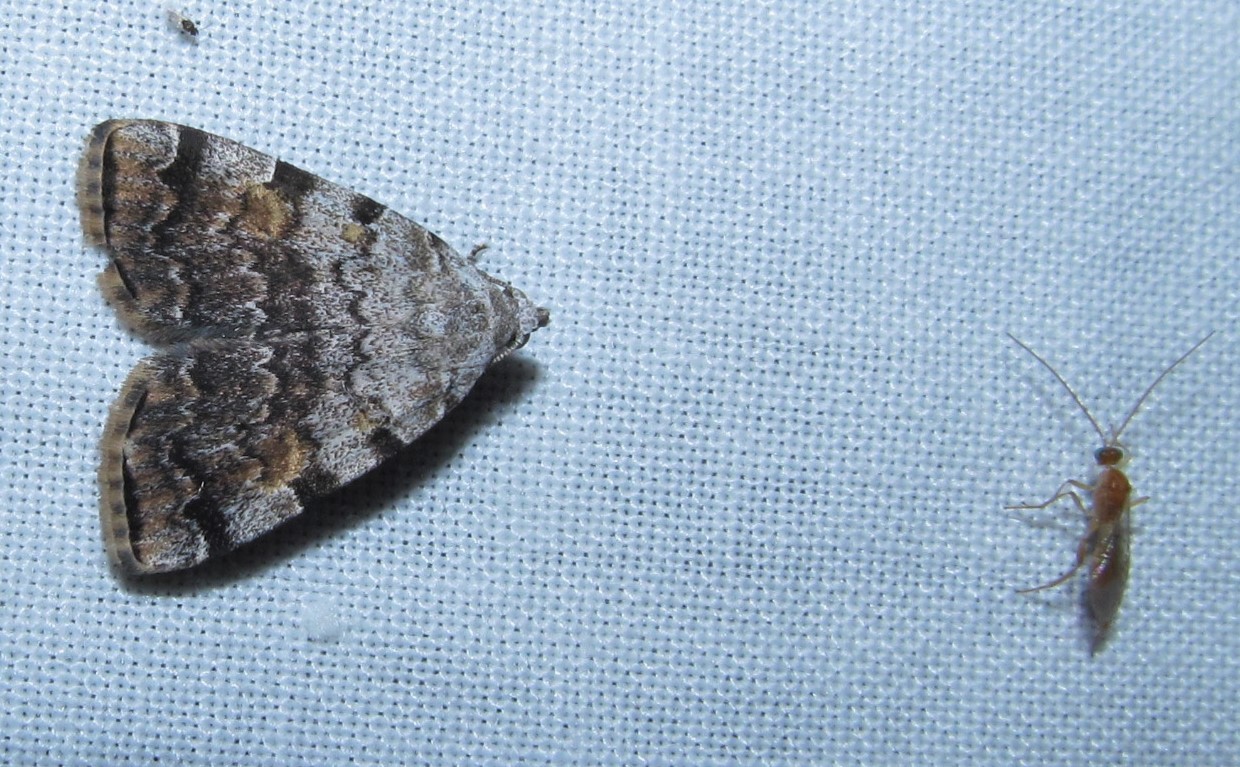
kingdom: Animalia
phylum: Arthropoda
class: Insecta
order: Lepidoptera
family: Erebidae
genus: Idia
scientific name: Idia americalis
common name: American idia moth
